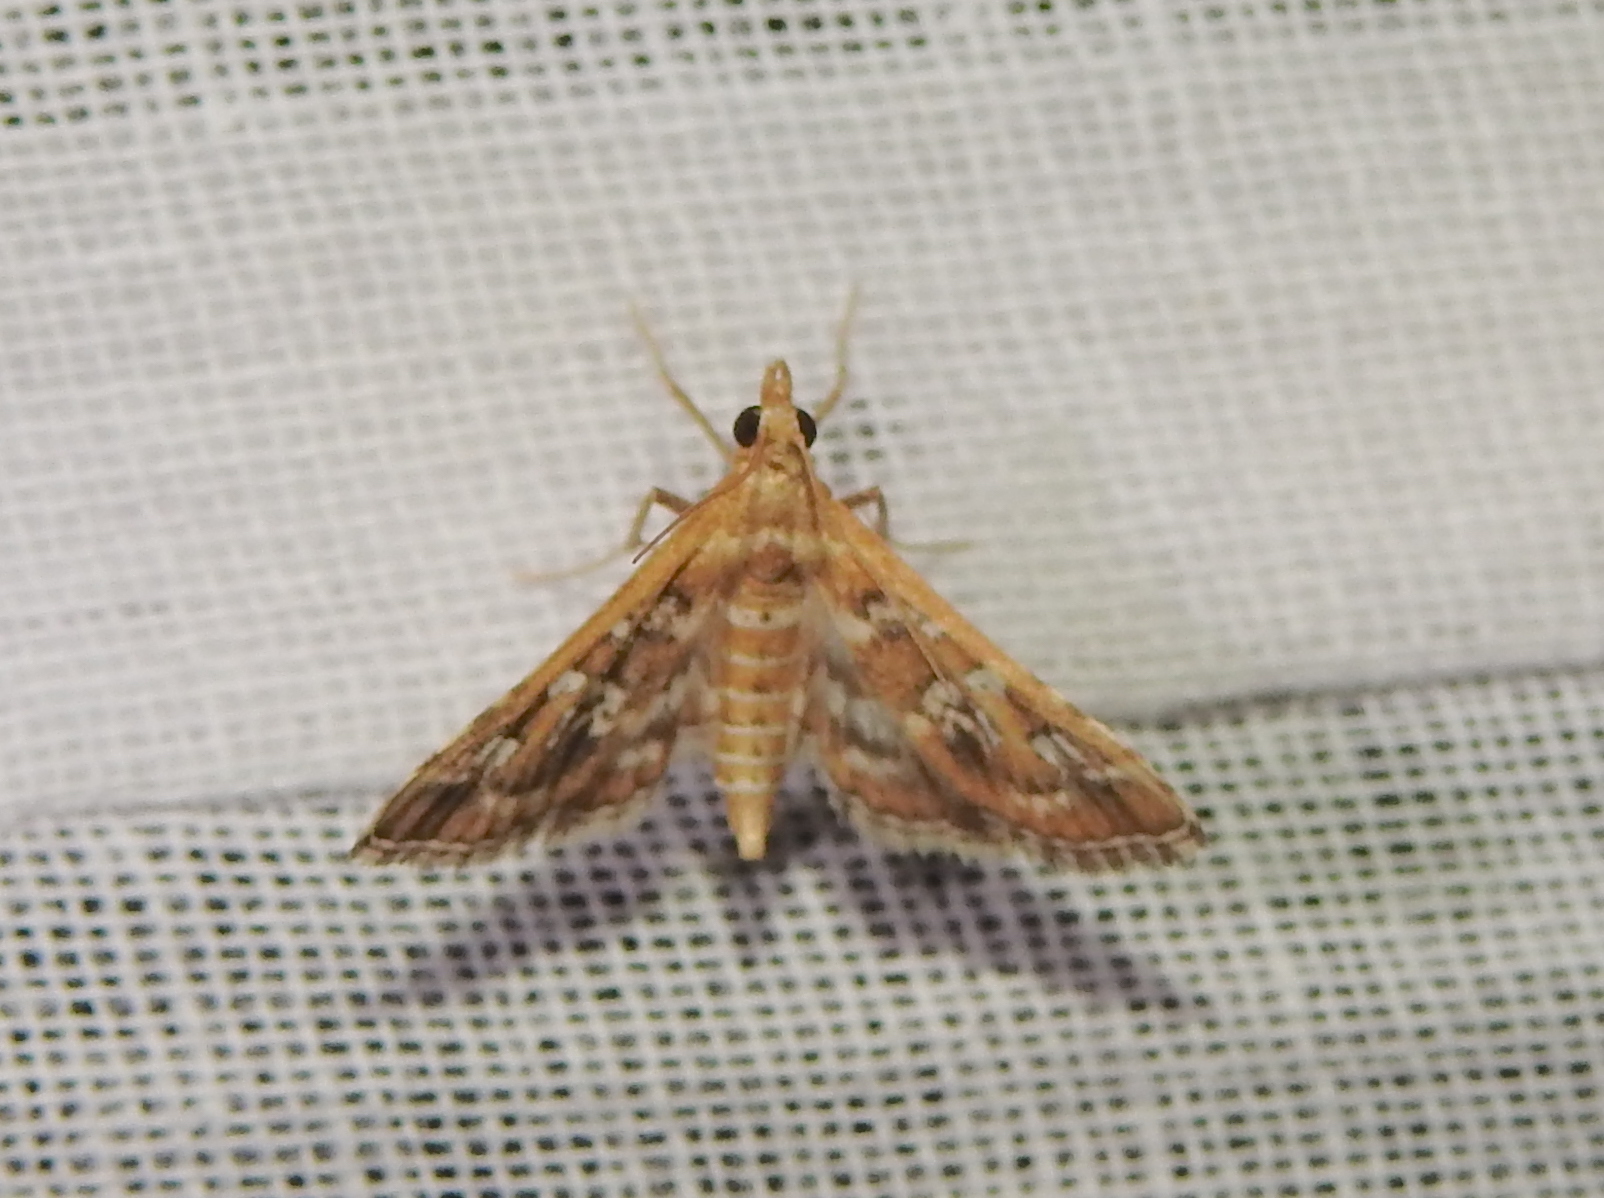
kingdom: Animalia
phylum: Arthropoda
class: Insecta
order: Lepidoptera
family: Crambidae
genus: Sameodes
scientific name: Sameodes cancellalis
